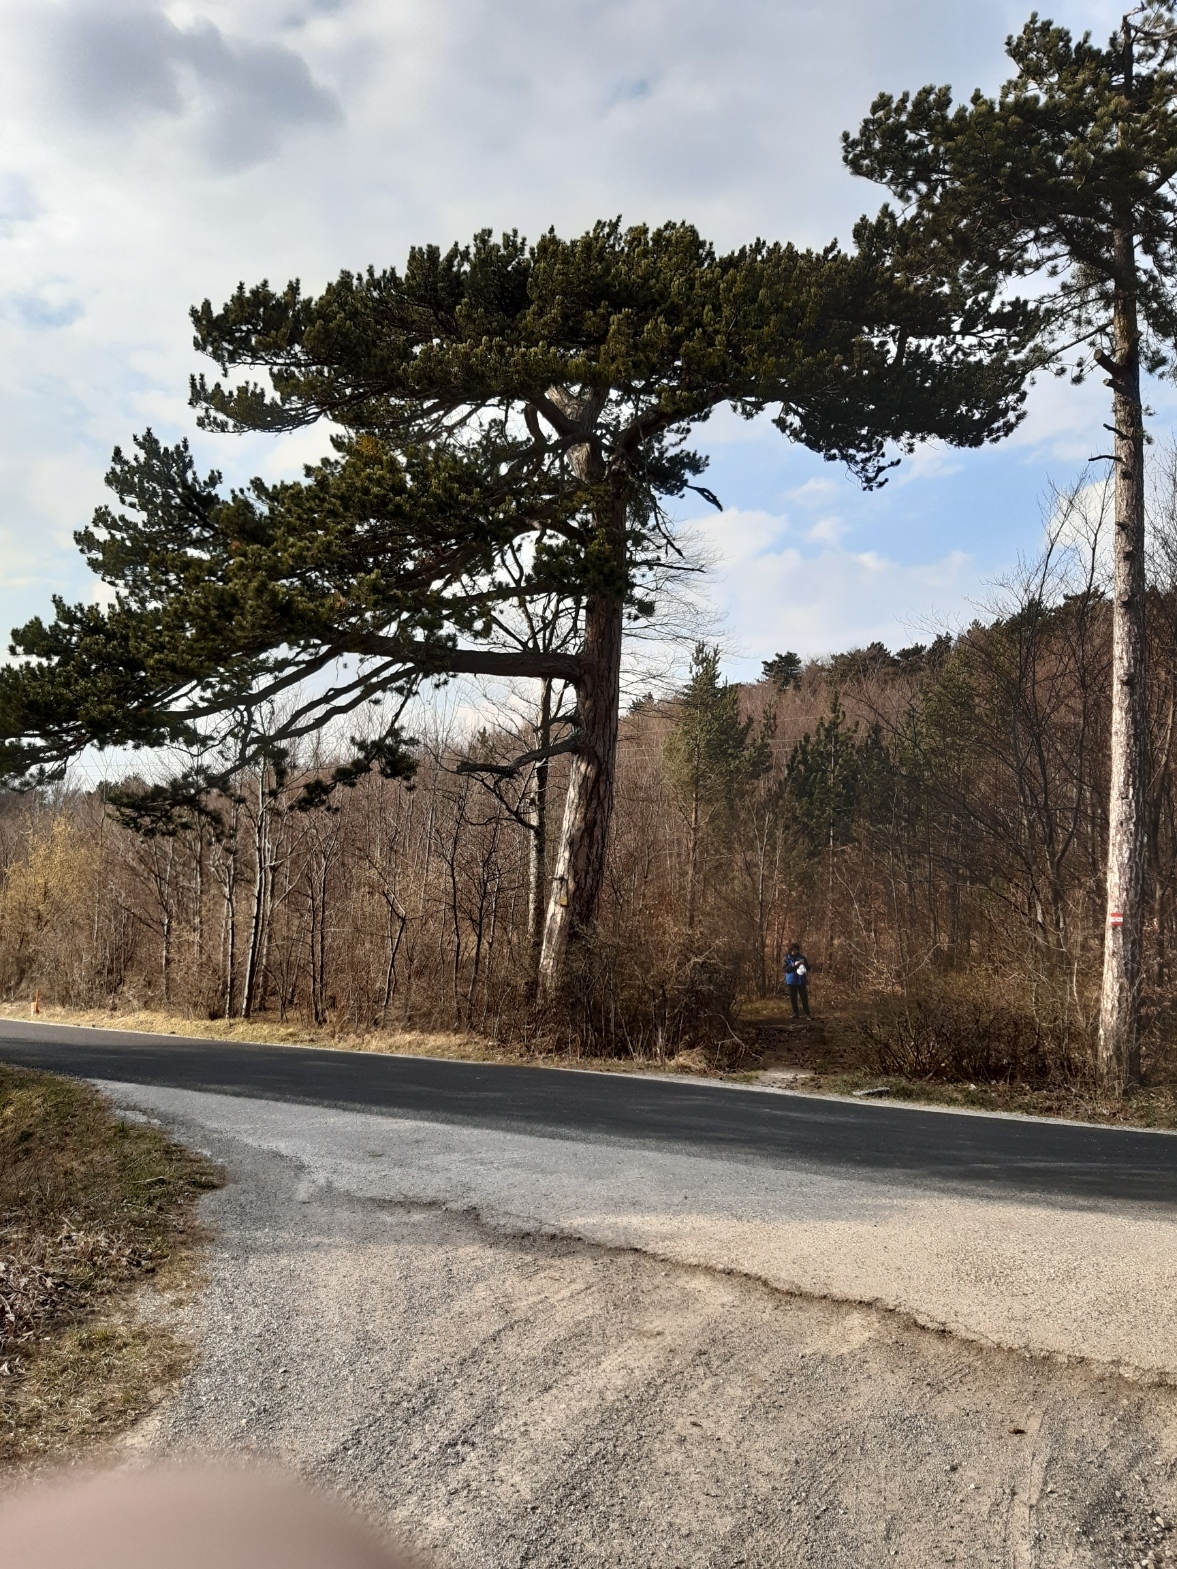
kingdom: Plantae
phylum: Tracheophyta
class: Pinopsida
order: Pinales
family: Pinaceae
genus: Pinus
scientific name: Pinus nigra
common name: Austrian pine
